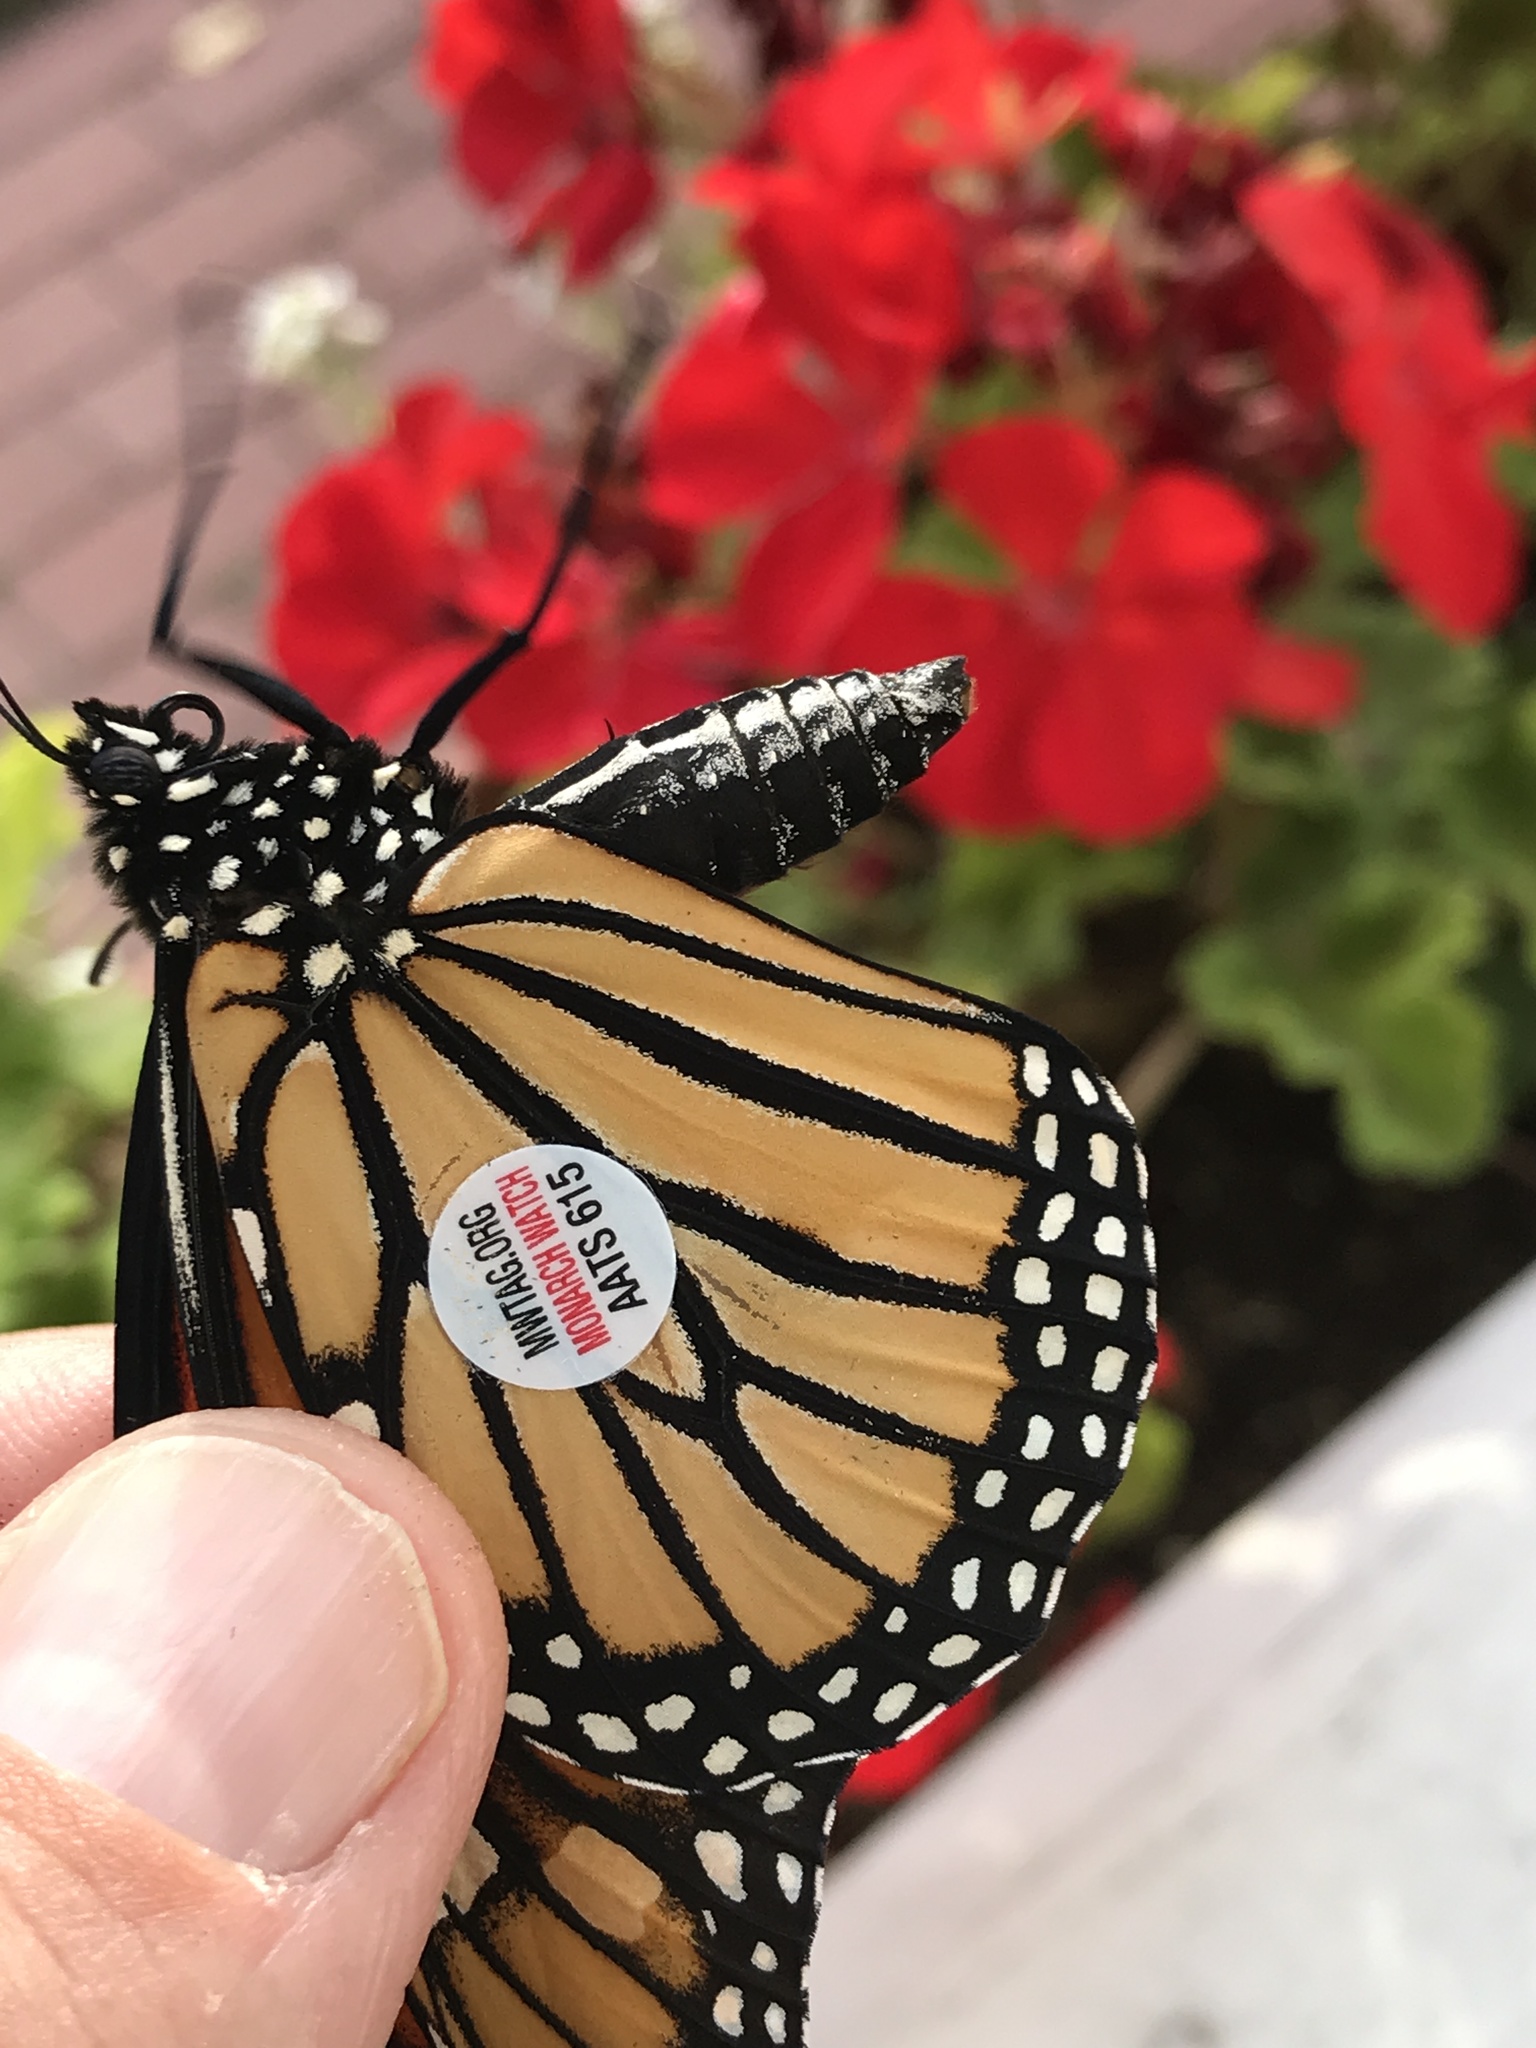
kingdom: Animalia
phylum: Arthropoda
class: Insecta
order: Lepidoptera
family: Nymphalidae
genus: Danaus
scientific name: Danaus plexippus
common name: Monarch
